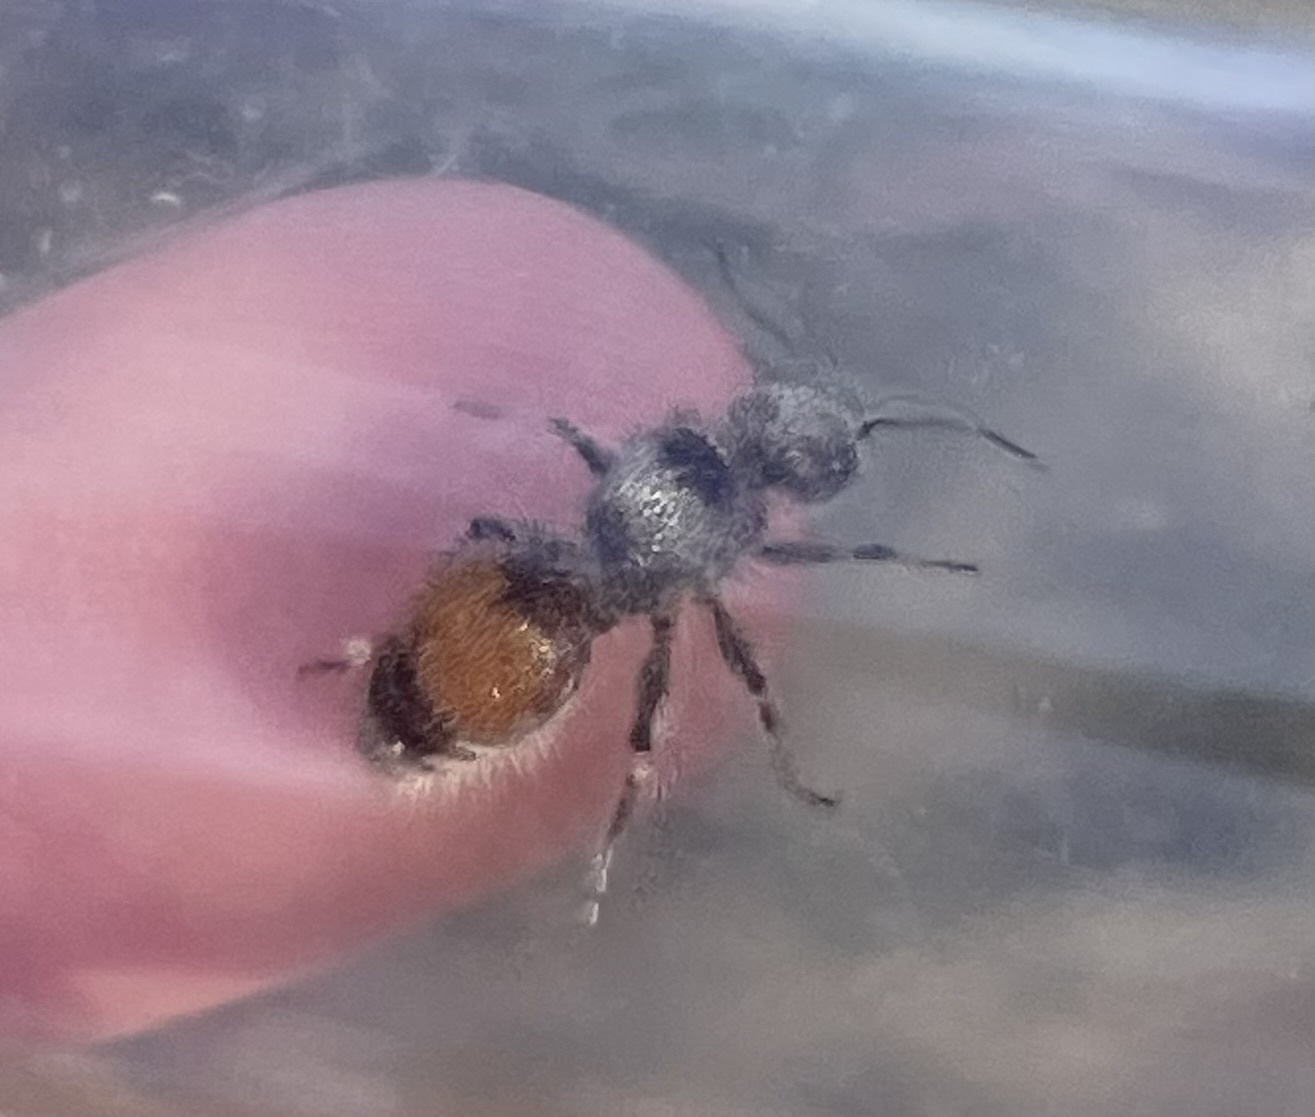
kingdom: Animalia
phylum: Arthropoda
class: Insecta
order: Hymenoptera
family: Mutillidae
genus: Dasymutilla
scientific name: Dasymutilla foxi
